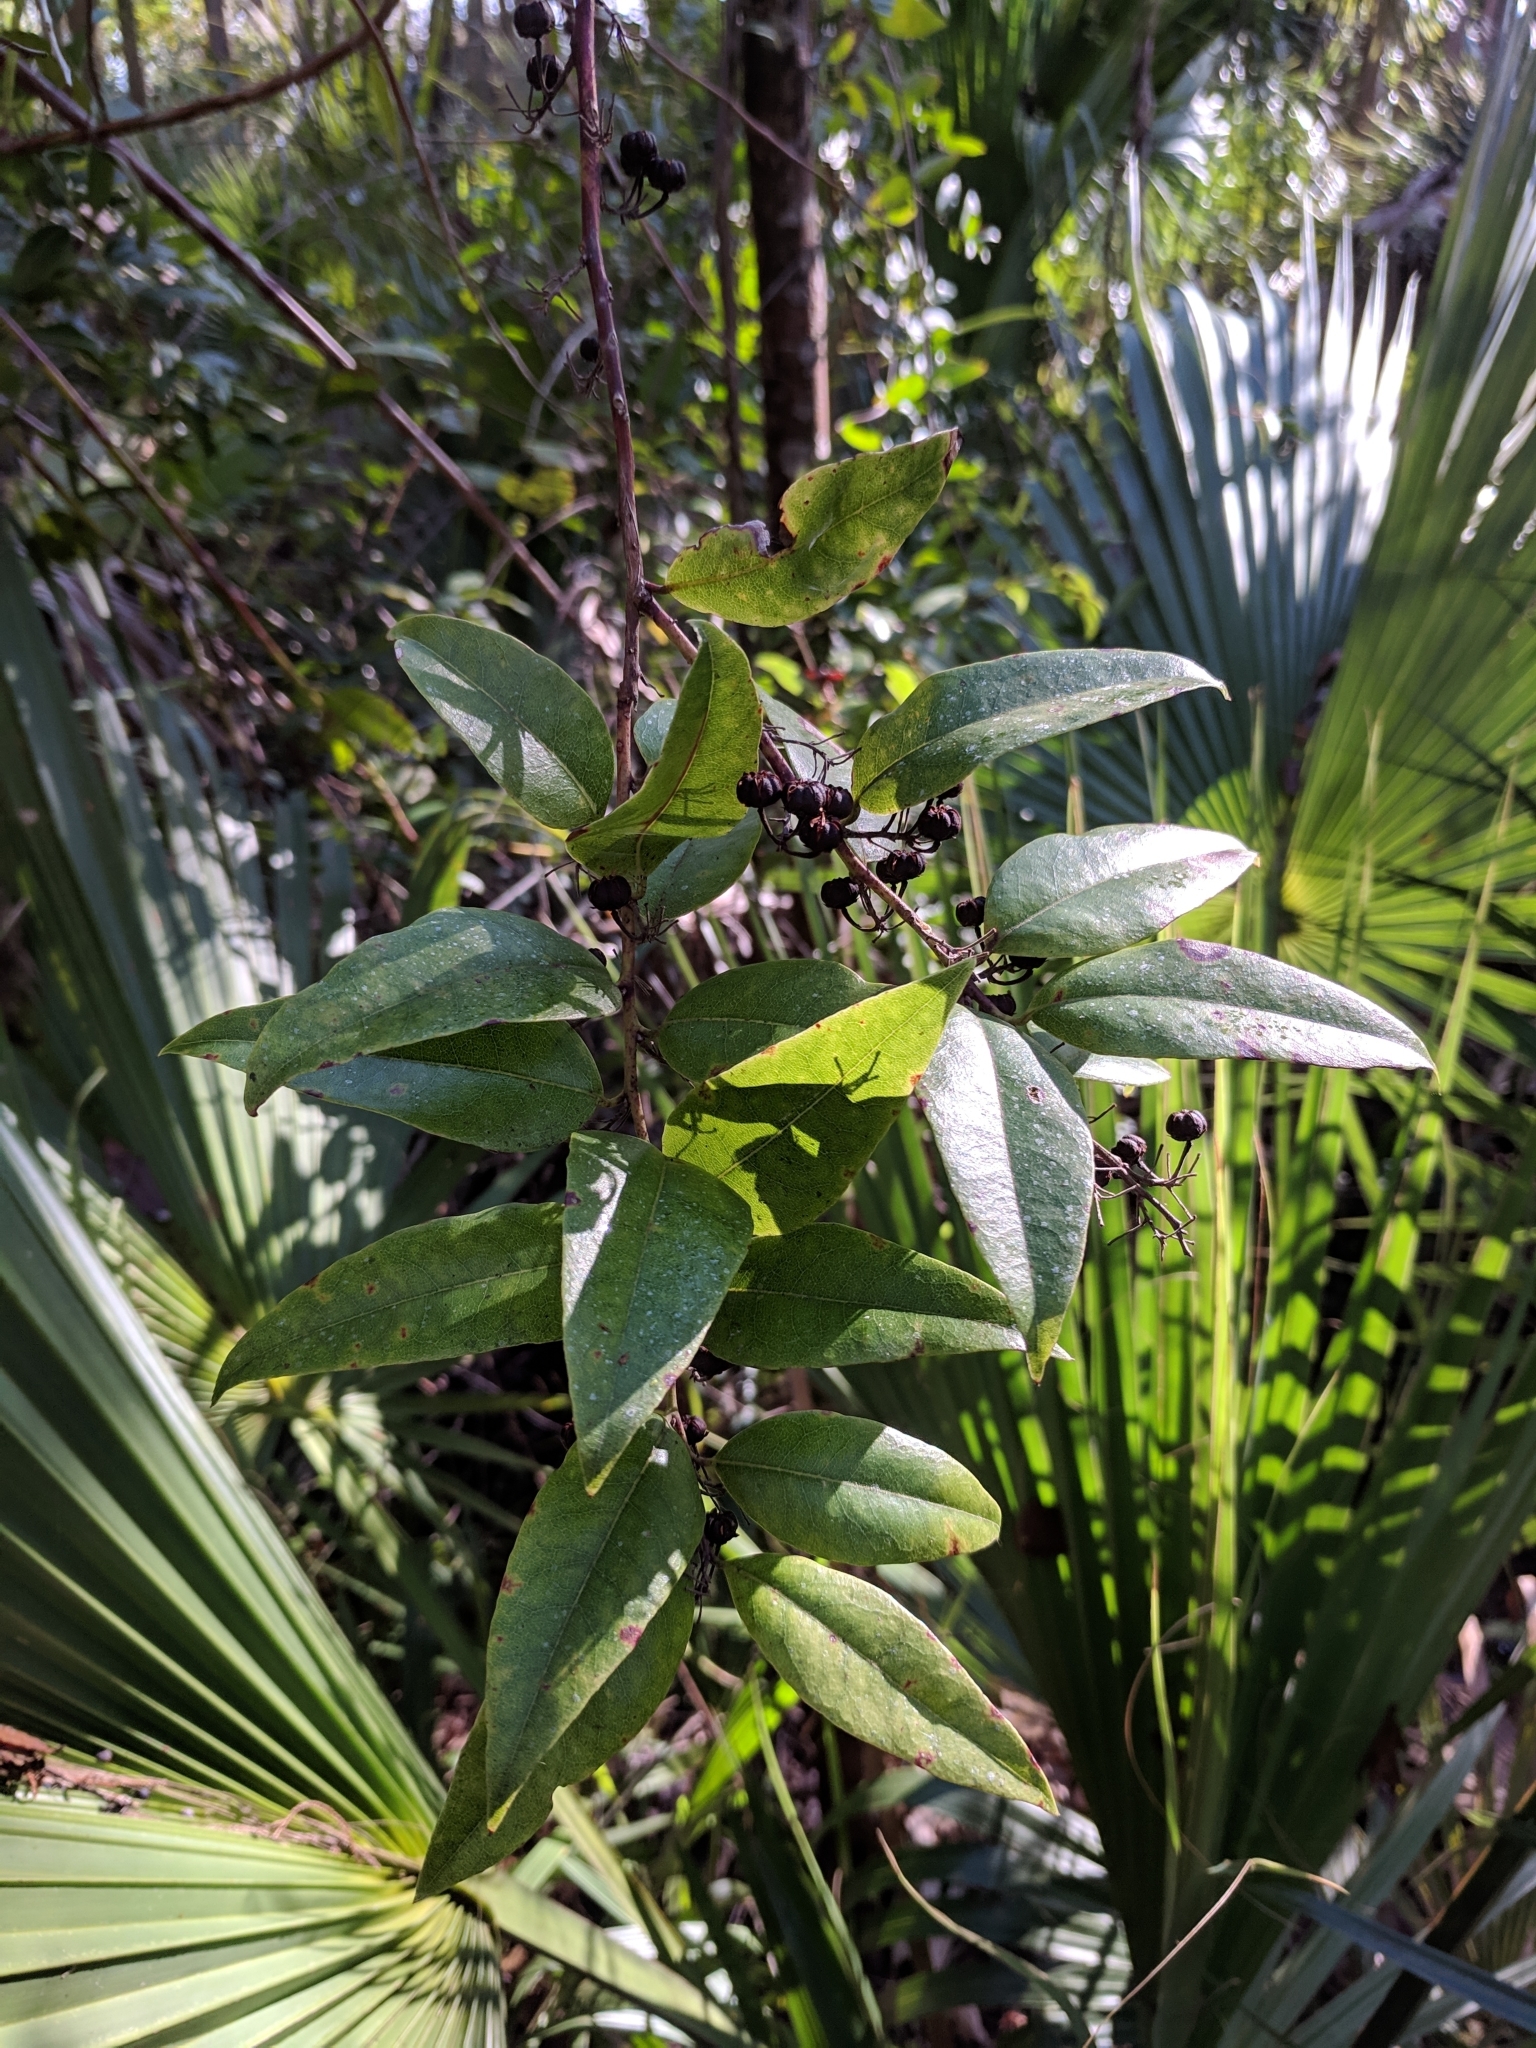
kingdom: Plantae
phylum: Tracheophyta
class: Magnoliopsida
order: Ericales
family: Ericaceae
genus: Agarista
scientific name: Agarista populifolia
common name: Pipeplant
